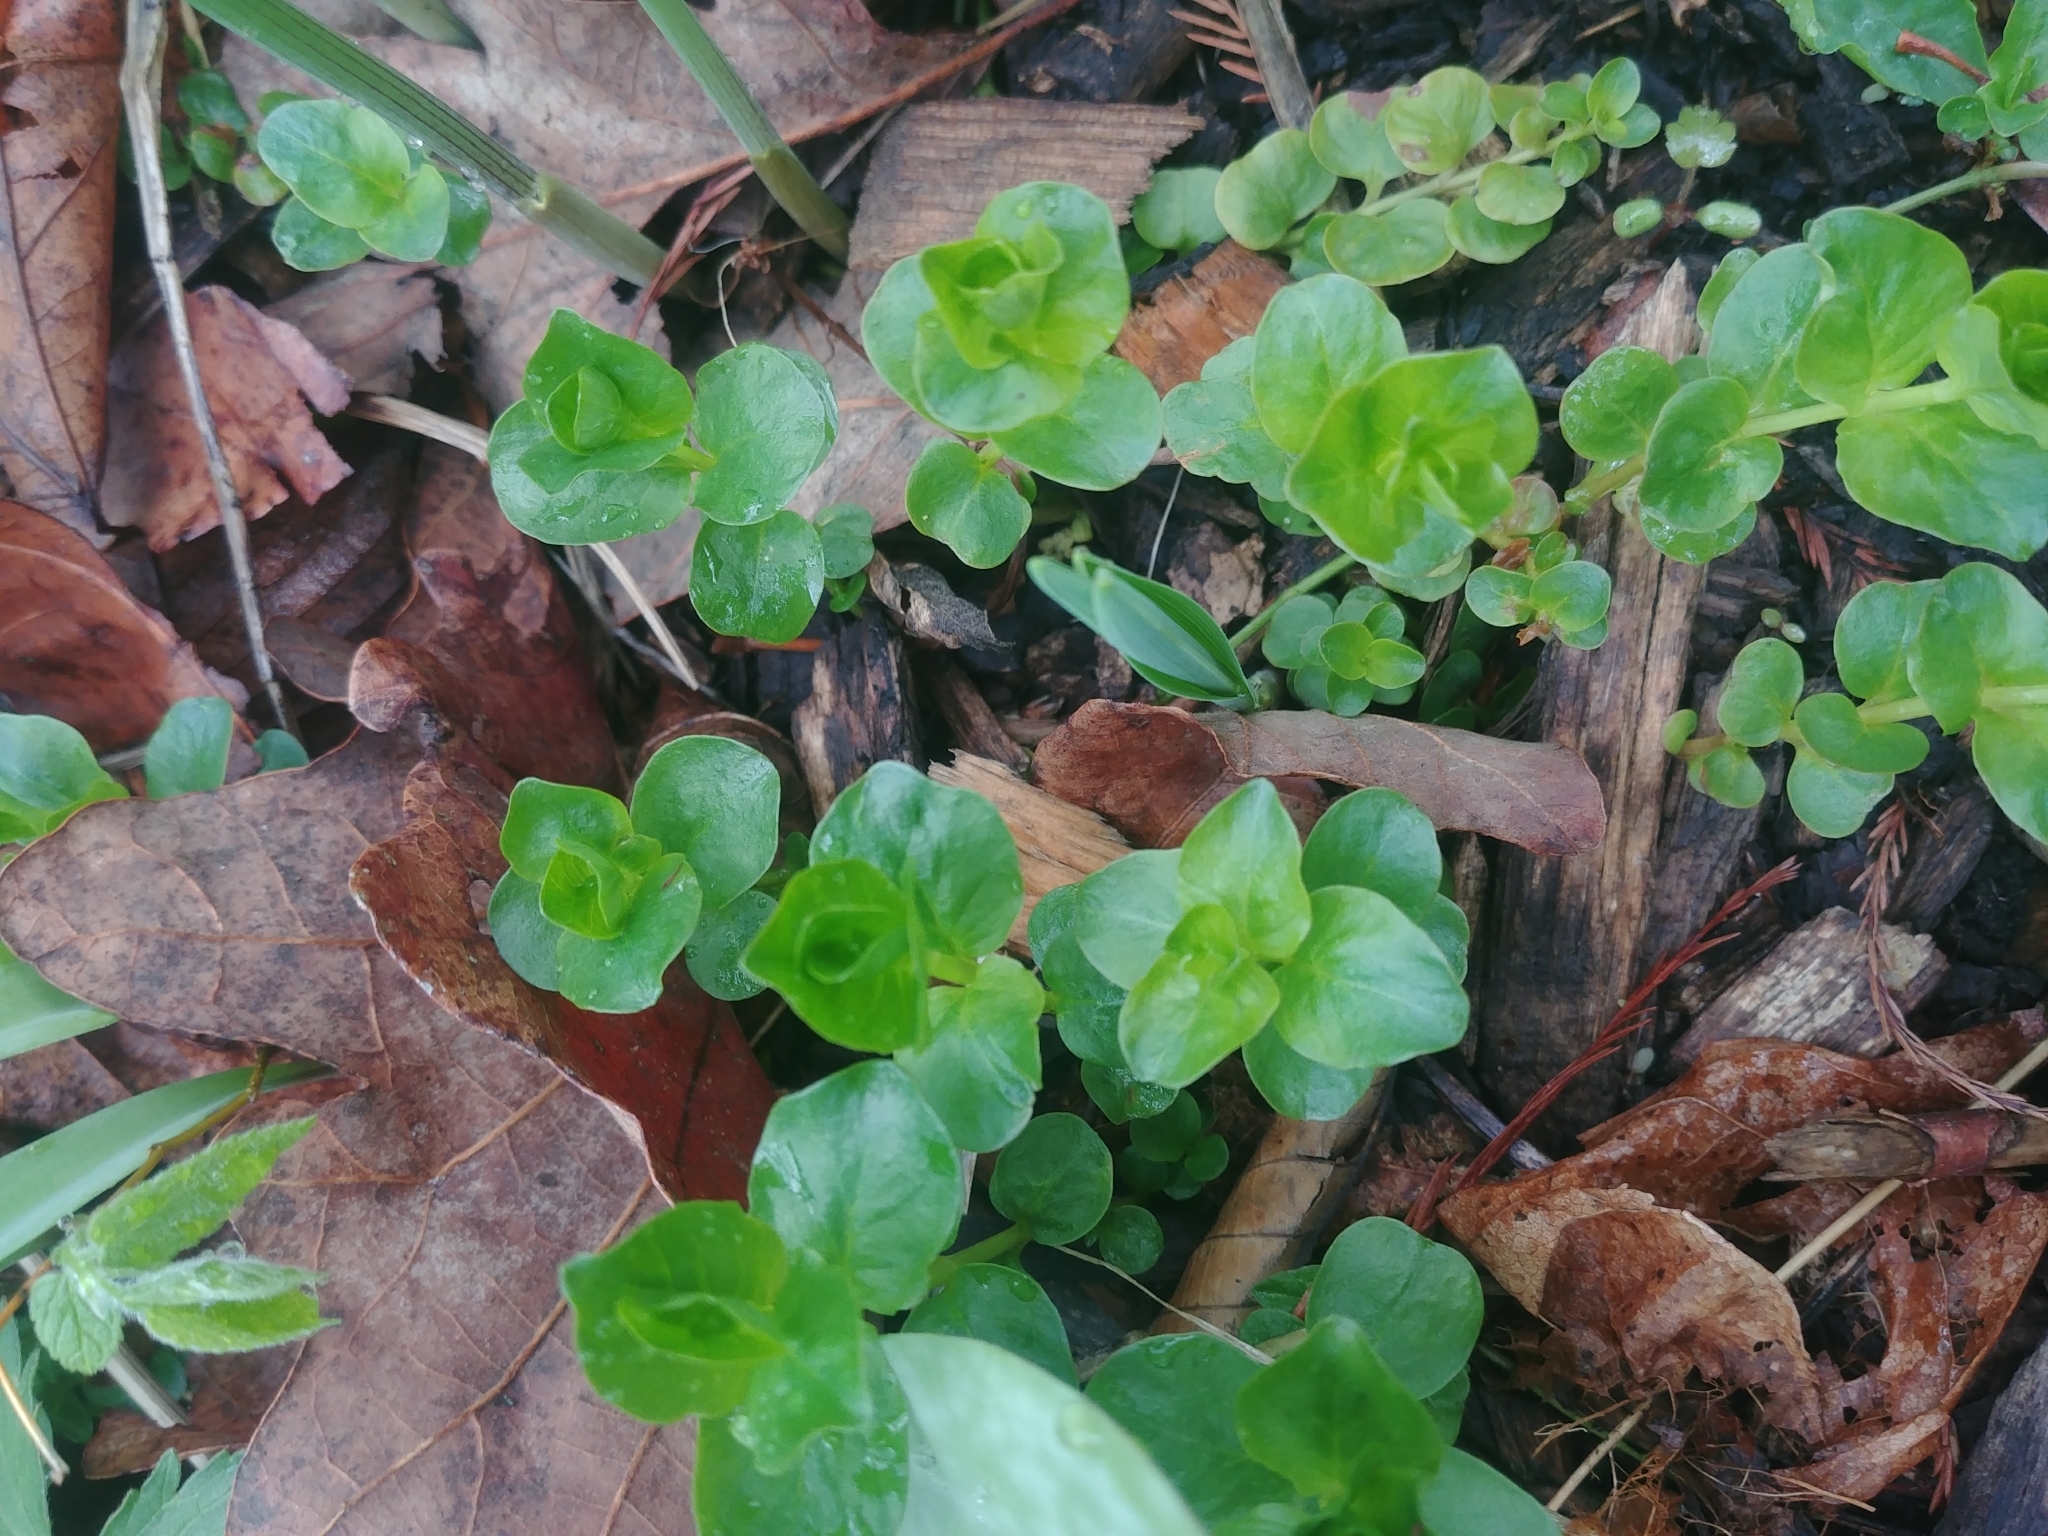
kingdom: Plantae
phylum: Tracheophyta
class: Magnoliopsida
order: Ericales
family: Primulaceae
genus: Lysimachia
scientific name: Lysimachia nummularia
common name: Moneywort
